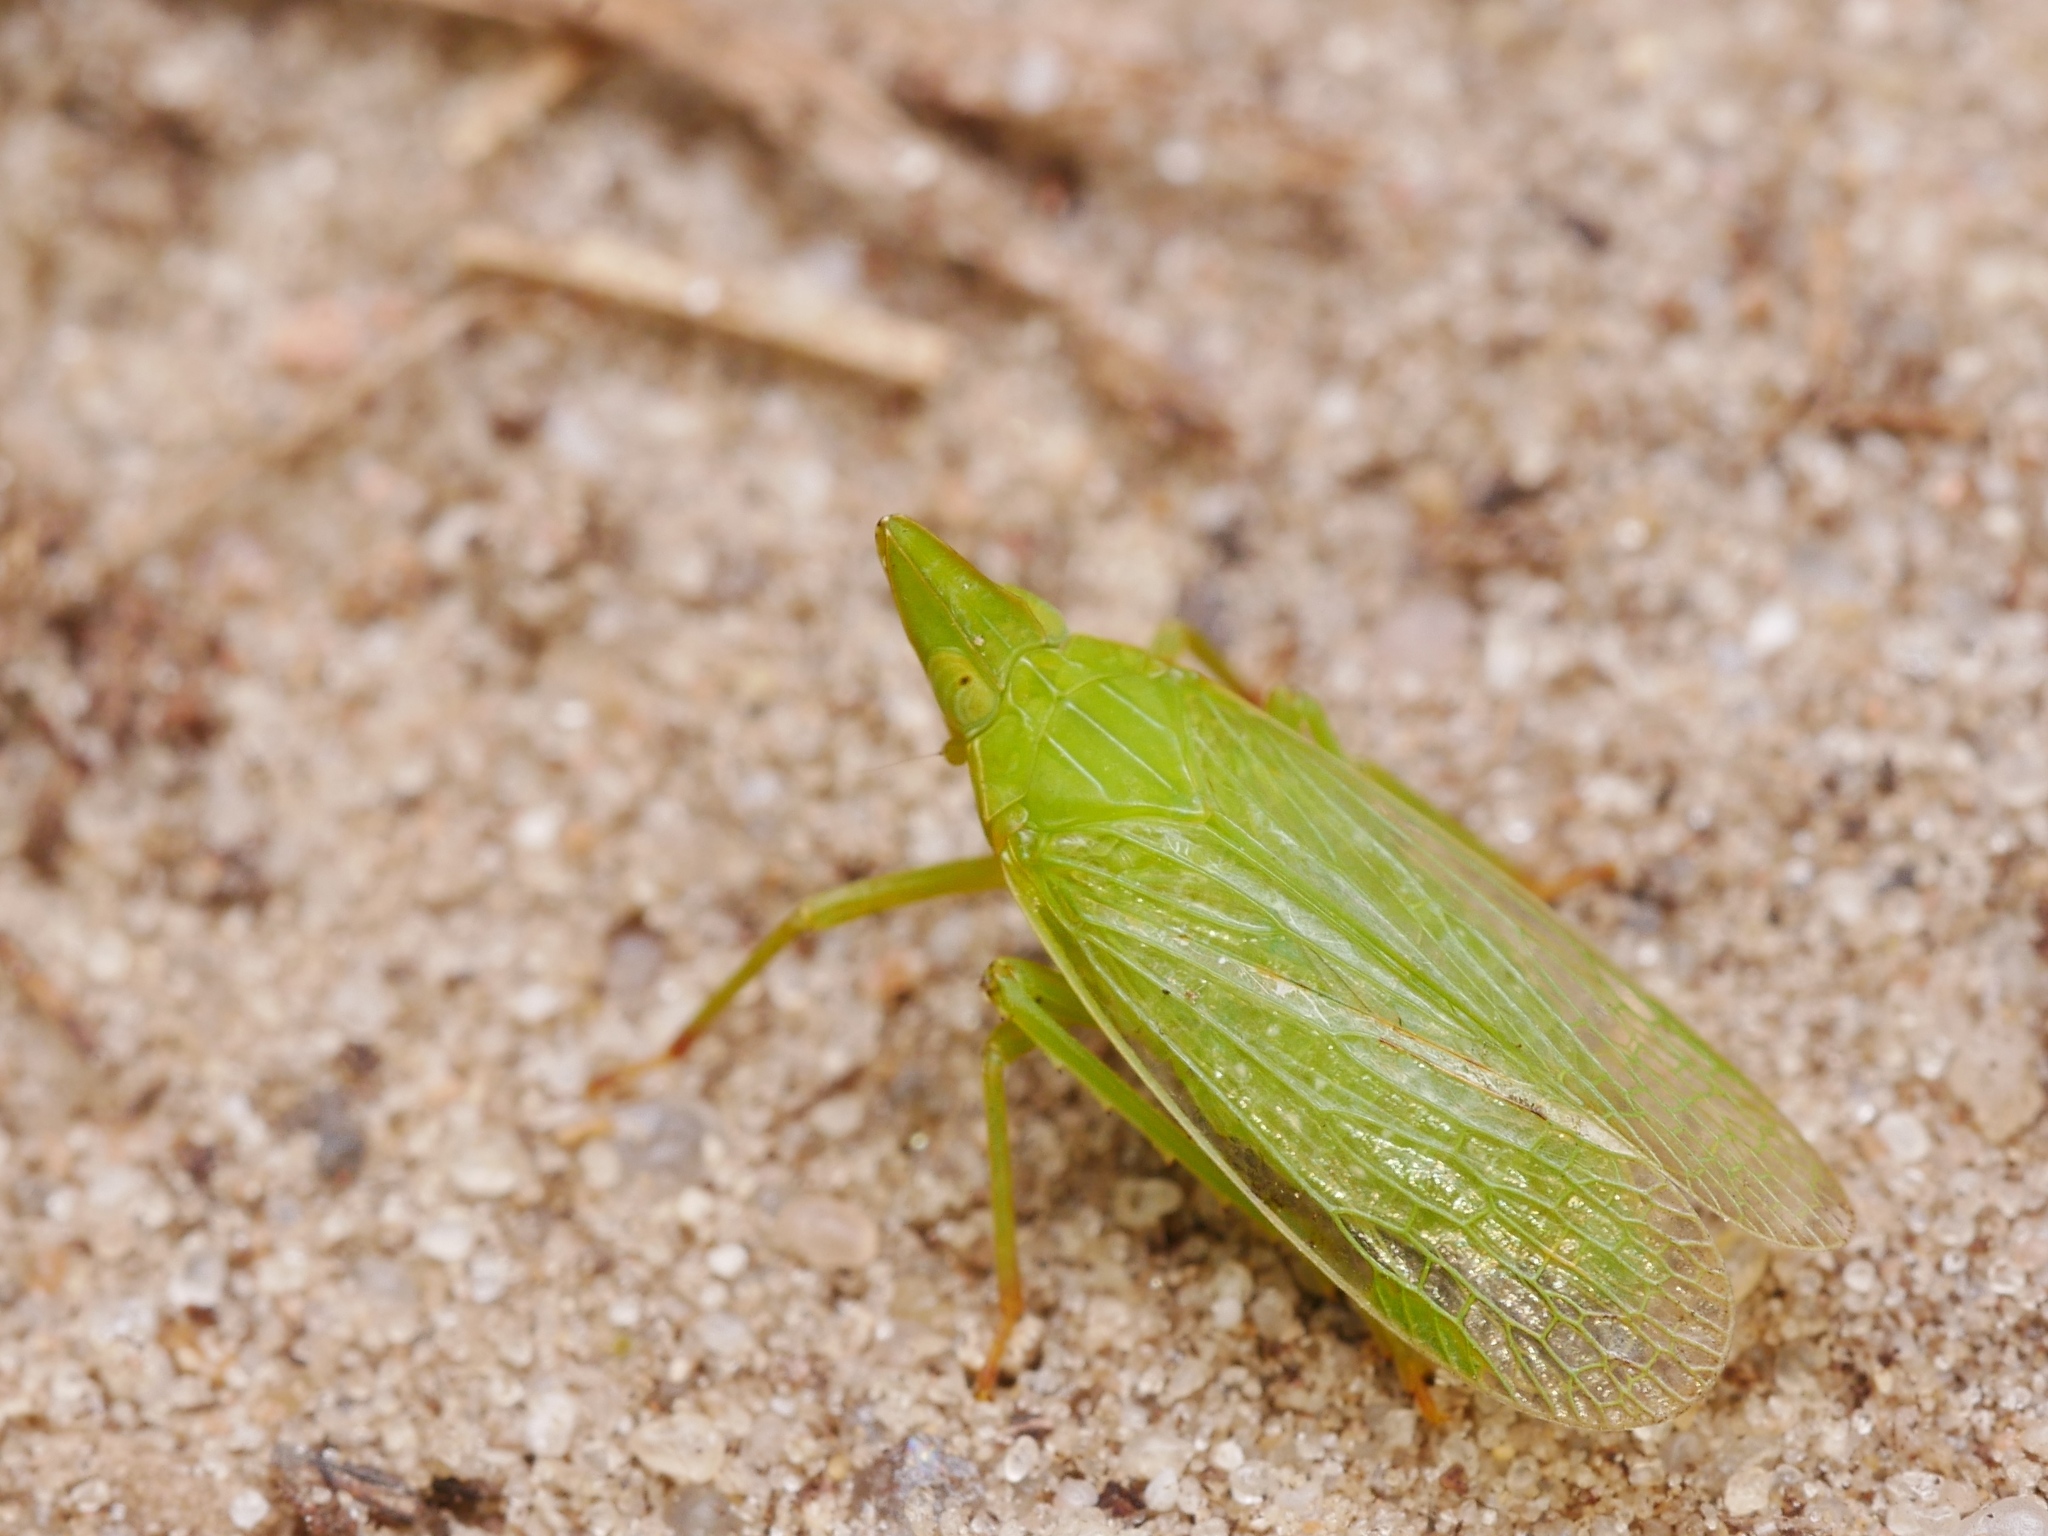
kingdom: Animalia
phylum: Arthropoda
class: Insecta
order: Hemiptera
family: Dictyopharidae
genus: Dictyophara
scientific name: Dictyophara europaea
